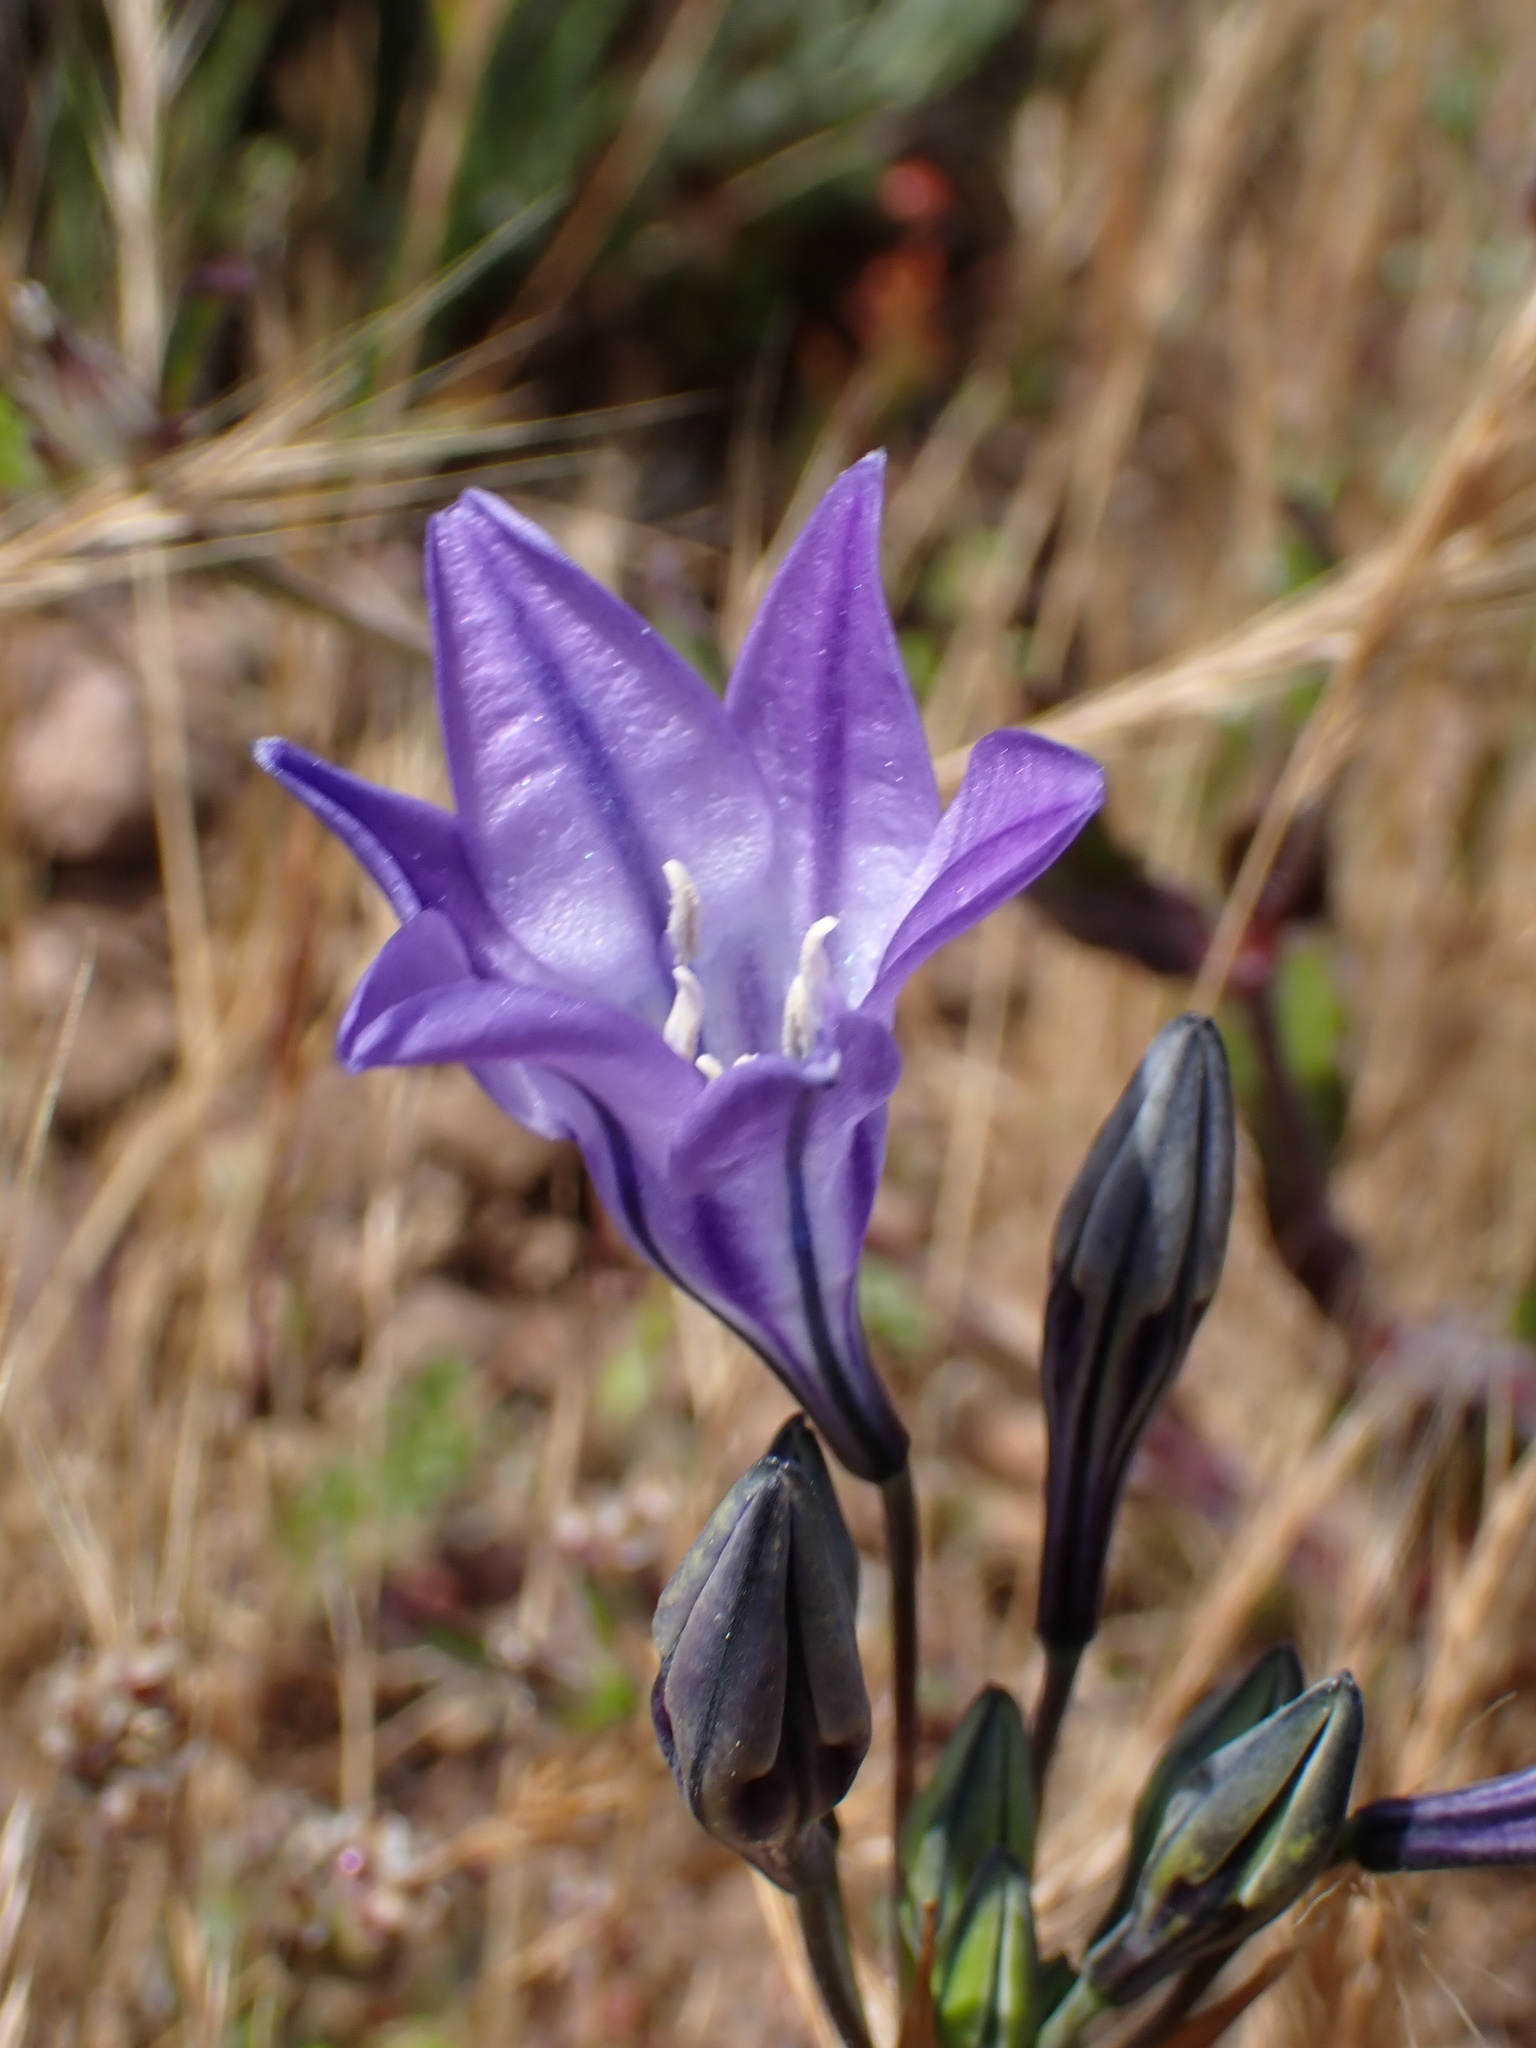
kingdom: Plantae
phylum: Tracheophyta
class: Liliopsida
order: Asparagales
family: Asparagaceae
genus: Triteleia
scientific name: Triteleia laxa
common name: Triplet-lily
